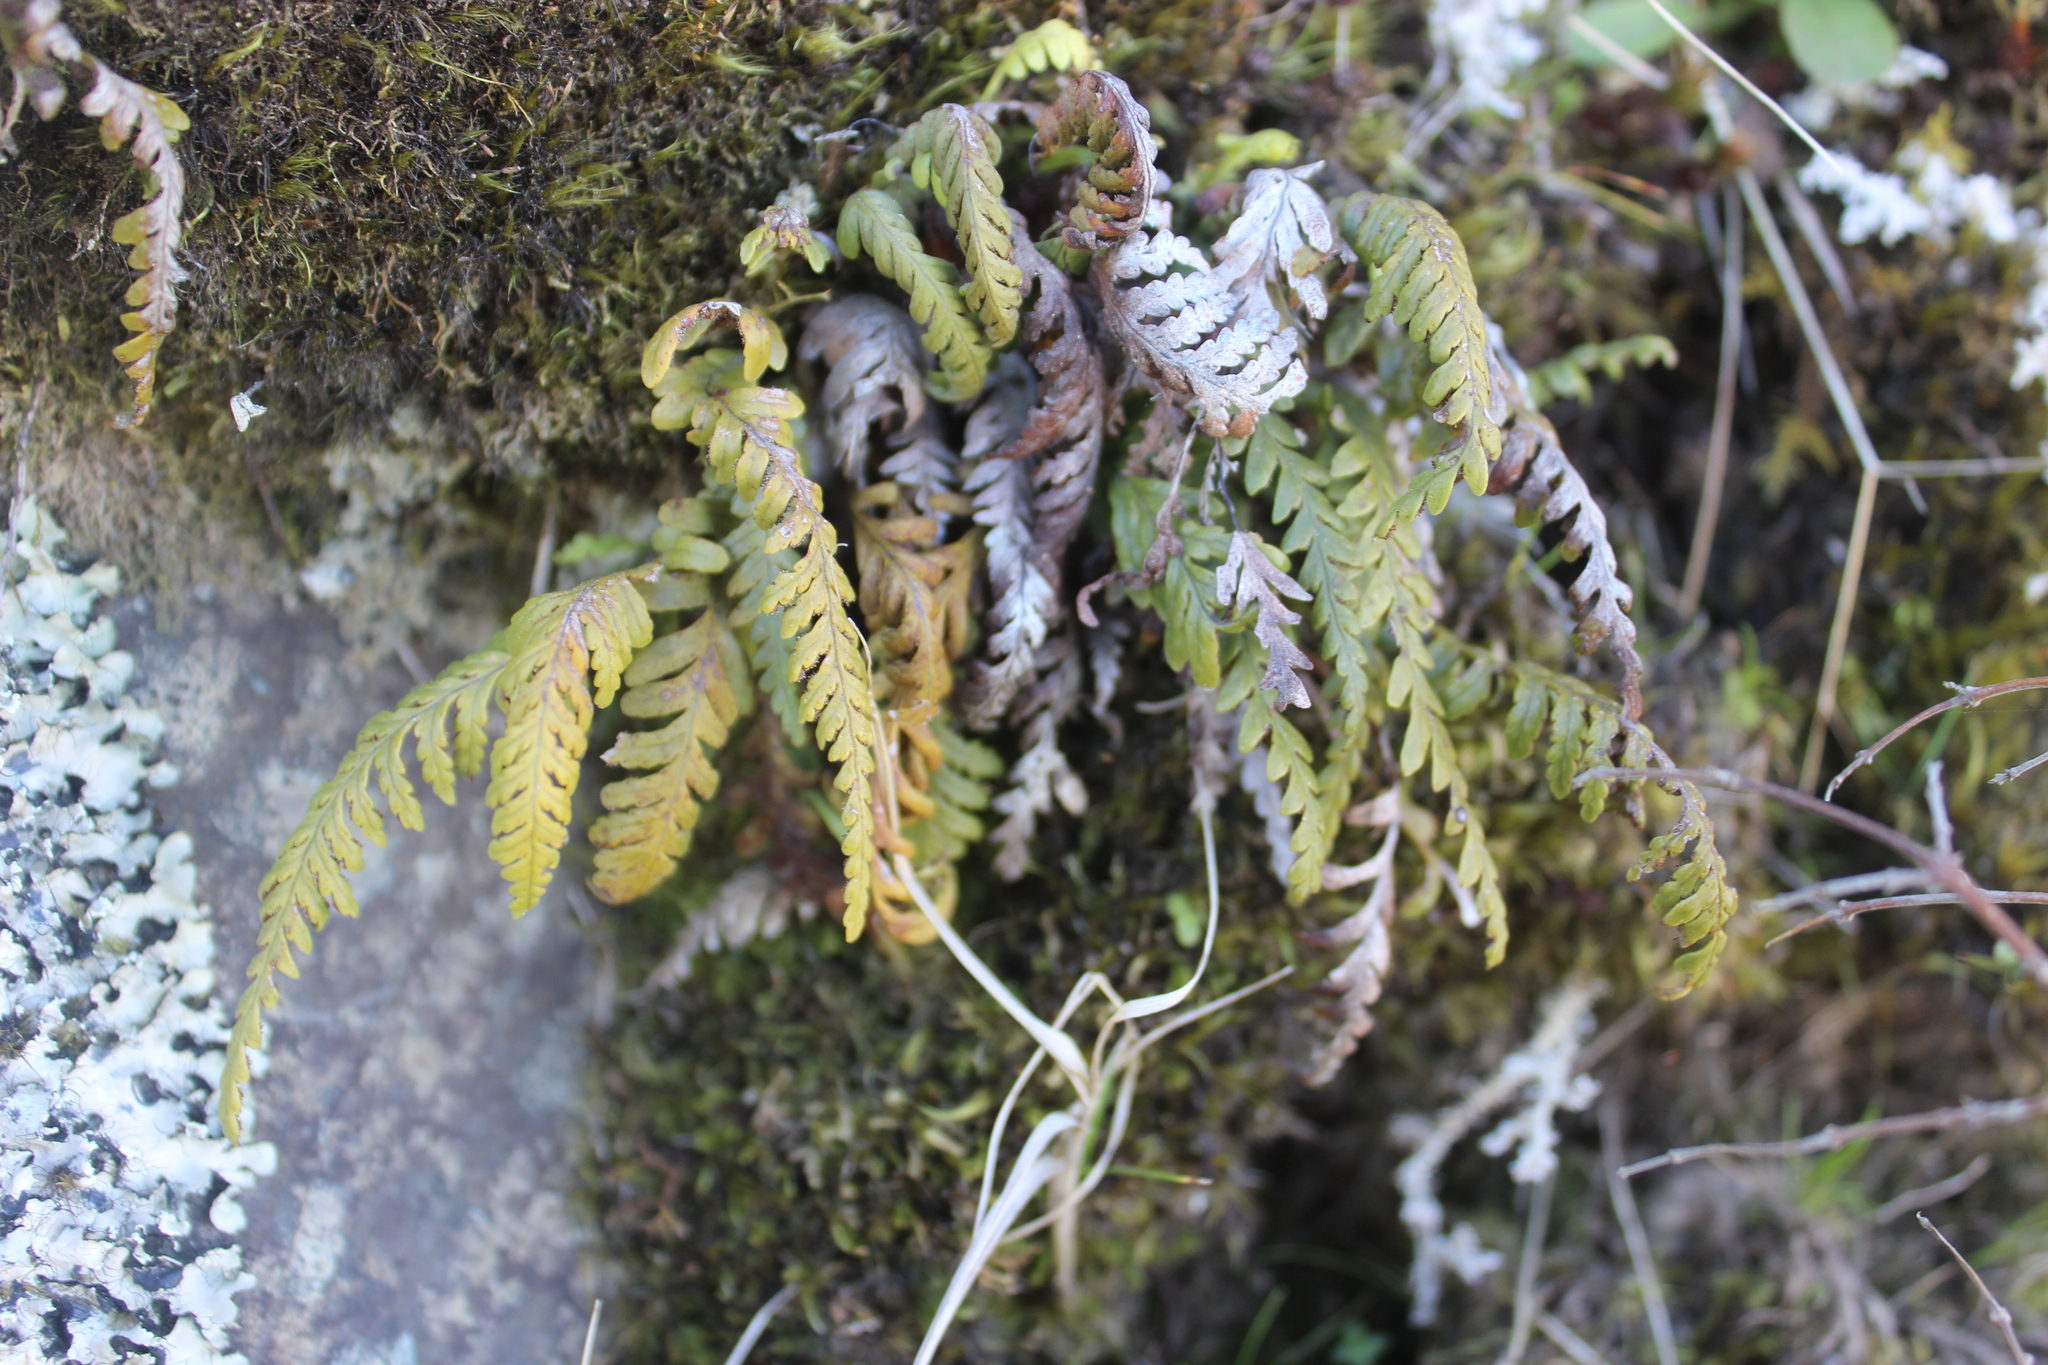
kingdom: Plantae
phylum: Tracheophyta
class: Polypodiopsida
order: Polypodiales
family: Polypodiaceae
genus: Notogrammitis
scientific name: Notogrammitis heterophylla
